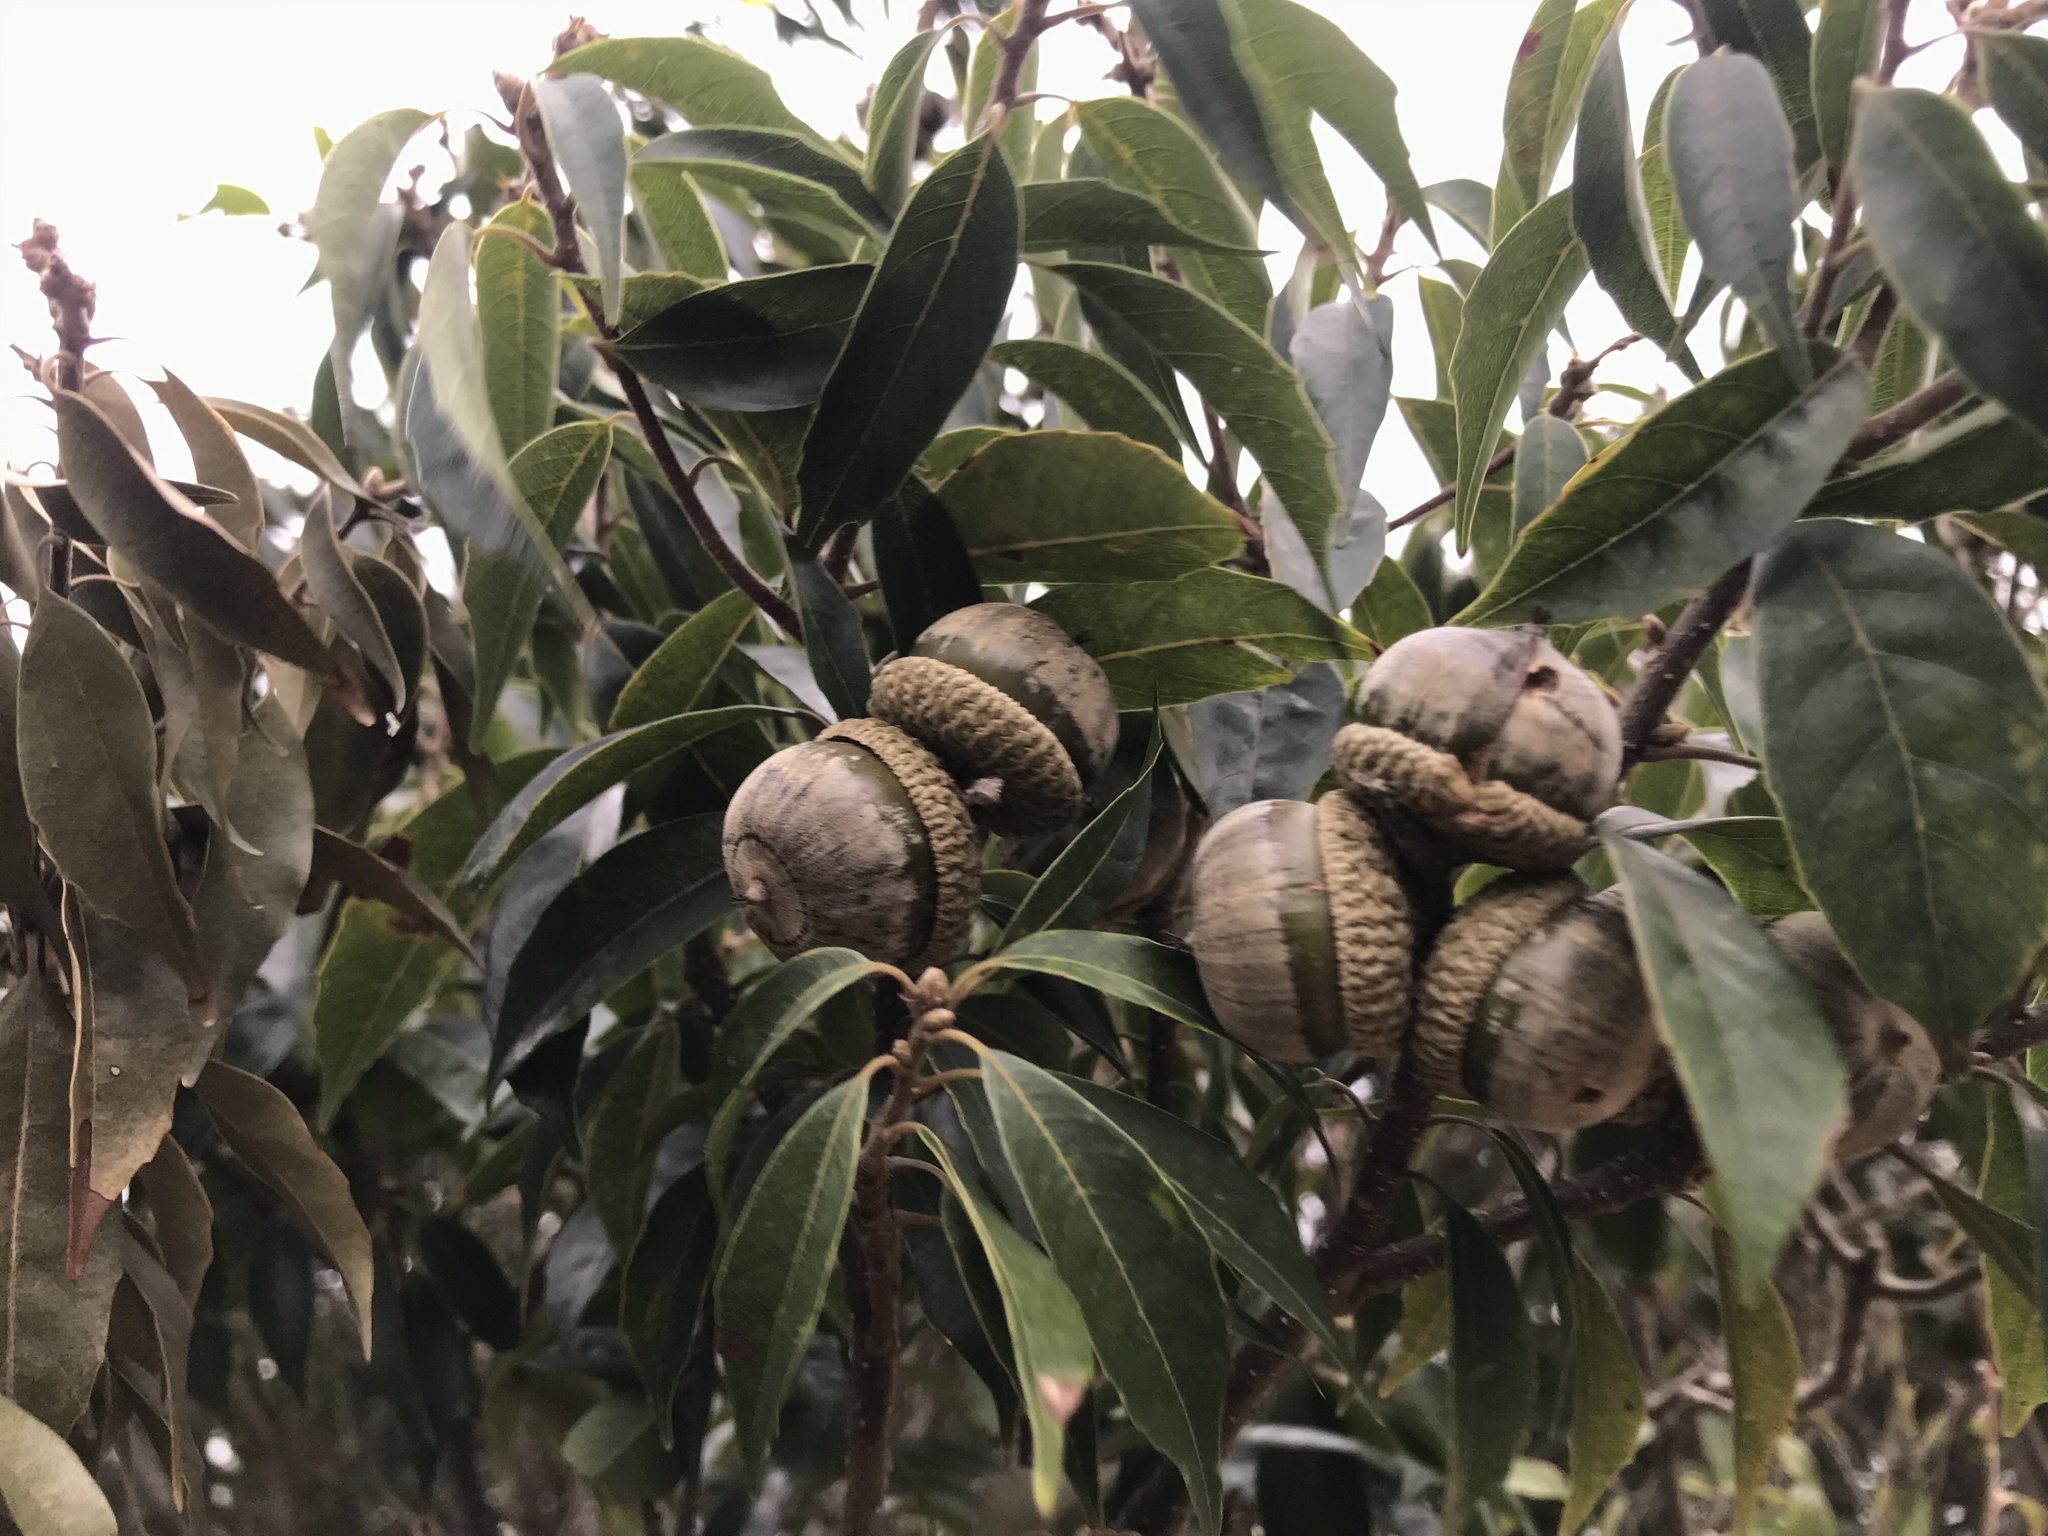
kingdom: Plantae
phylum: Tracheophyta
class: Magnoliopsida
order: Fagales
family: Fagaceae
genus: Lithocarpus
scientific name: Lithocarpus konishii
